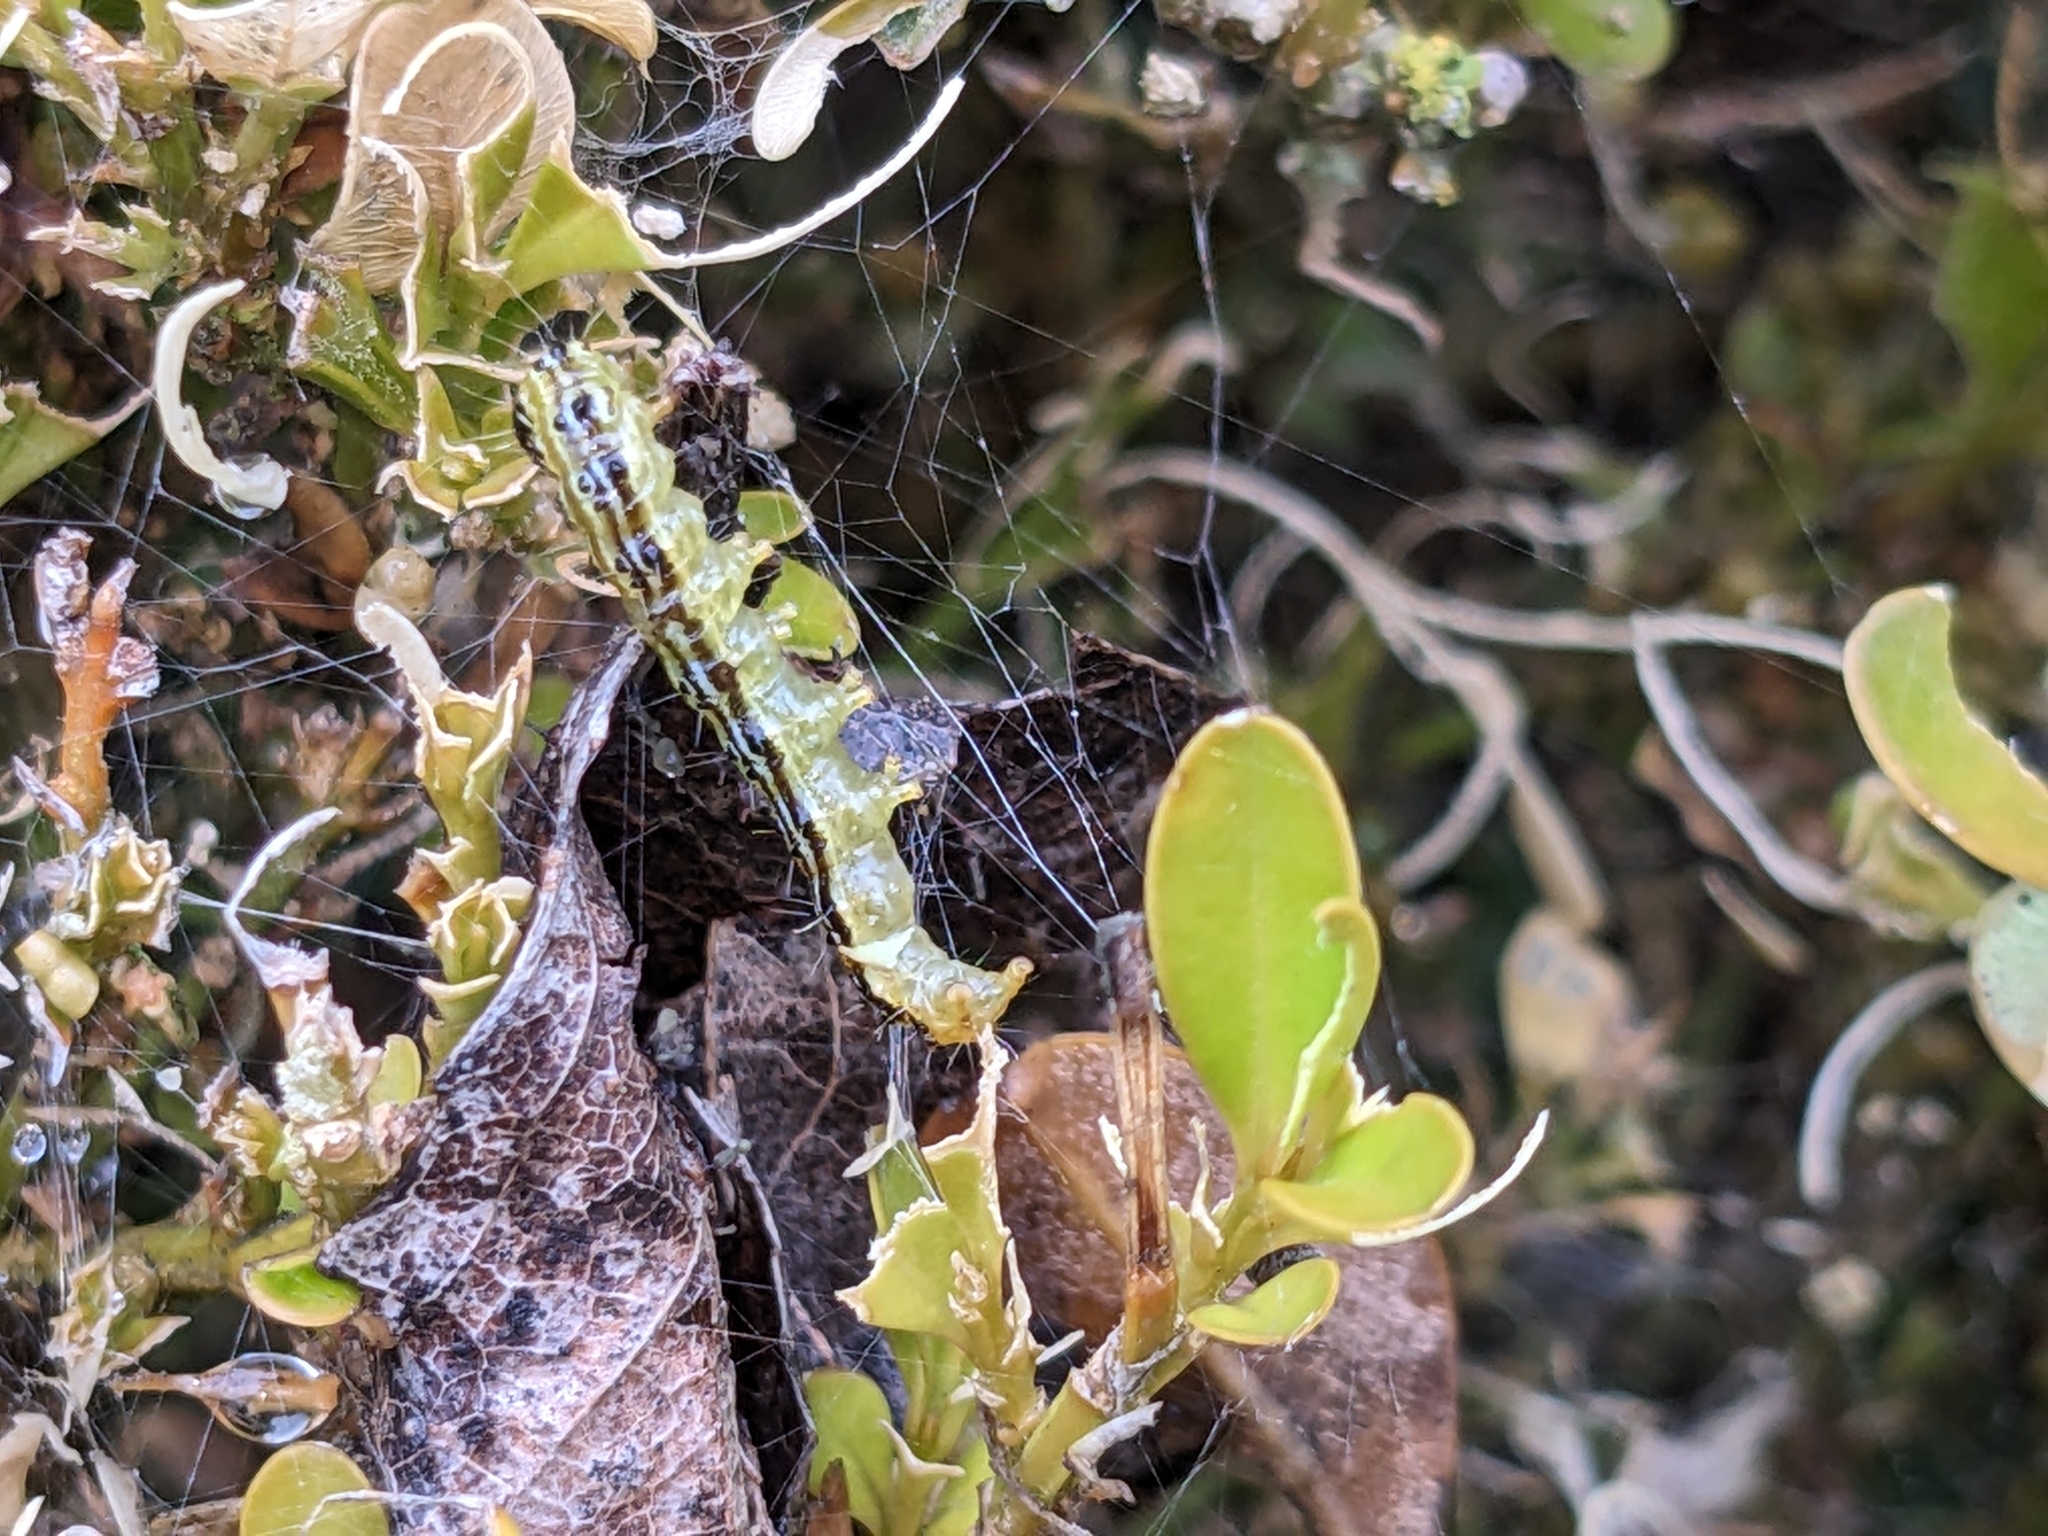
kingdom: Animalia
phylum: Arthropoda
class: Insecta
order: Lepidoptera
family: Crambidae
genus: Cydalima
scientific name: Cydalima perspectalis
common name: Box tree moth
